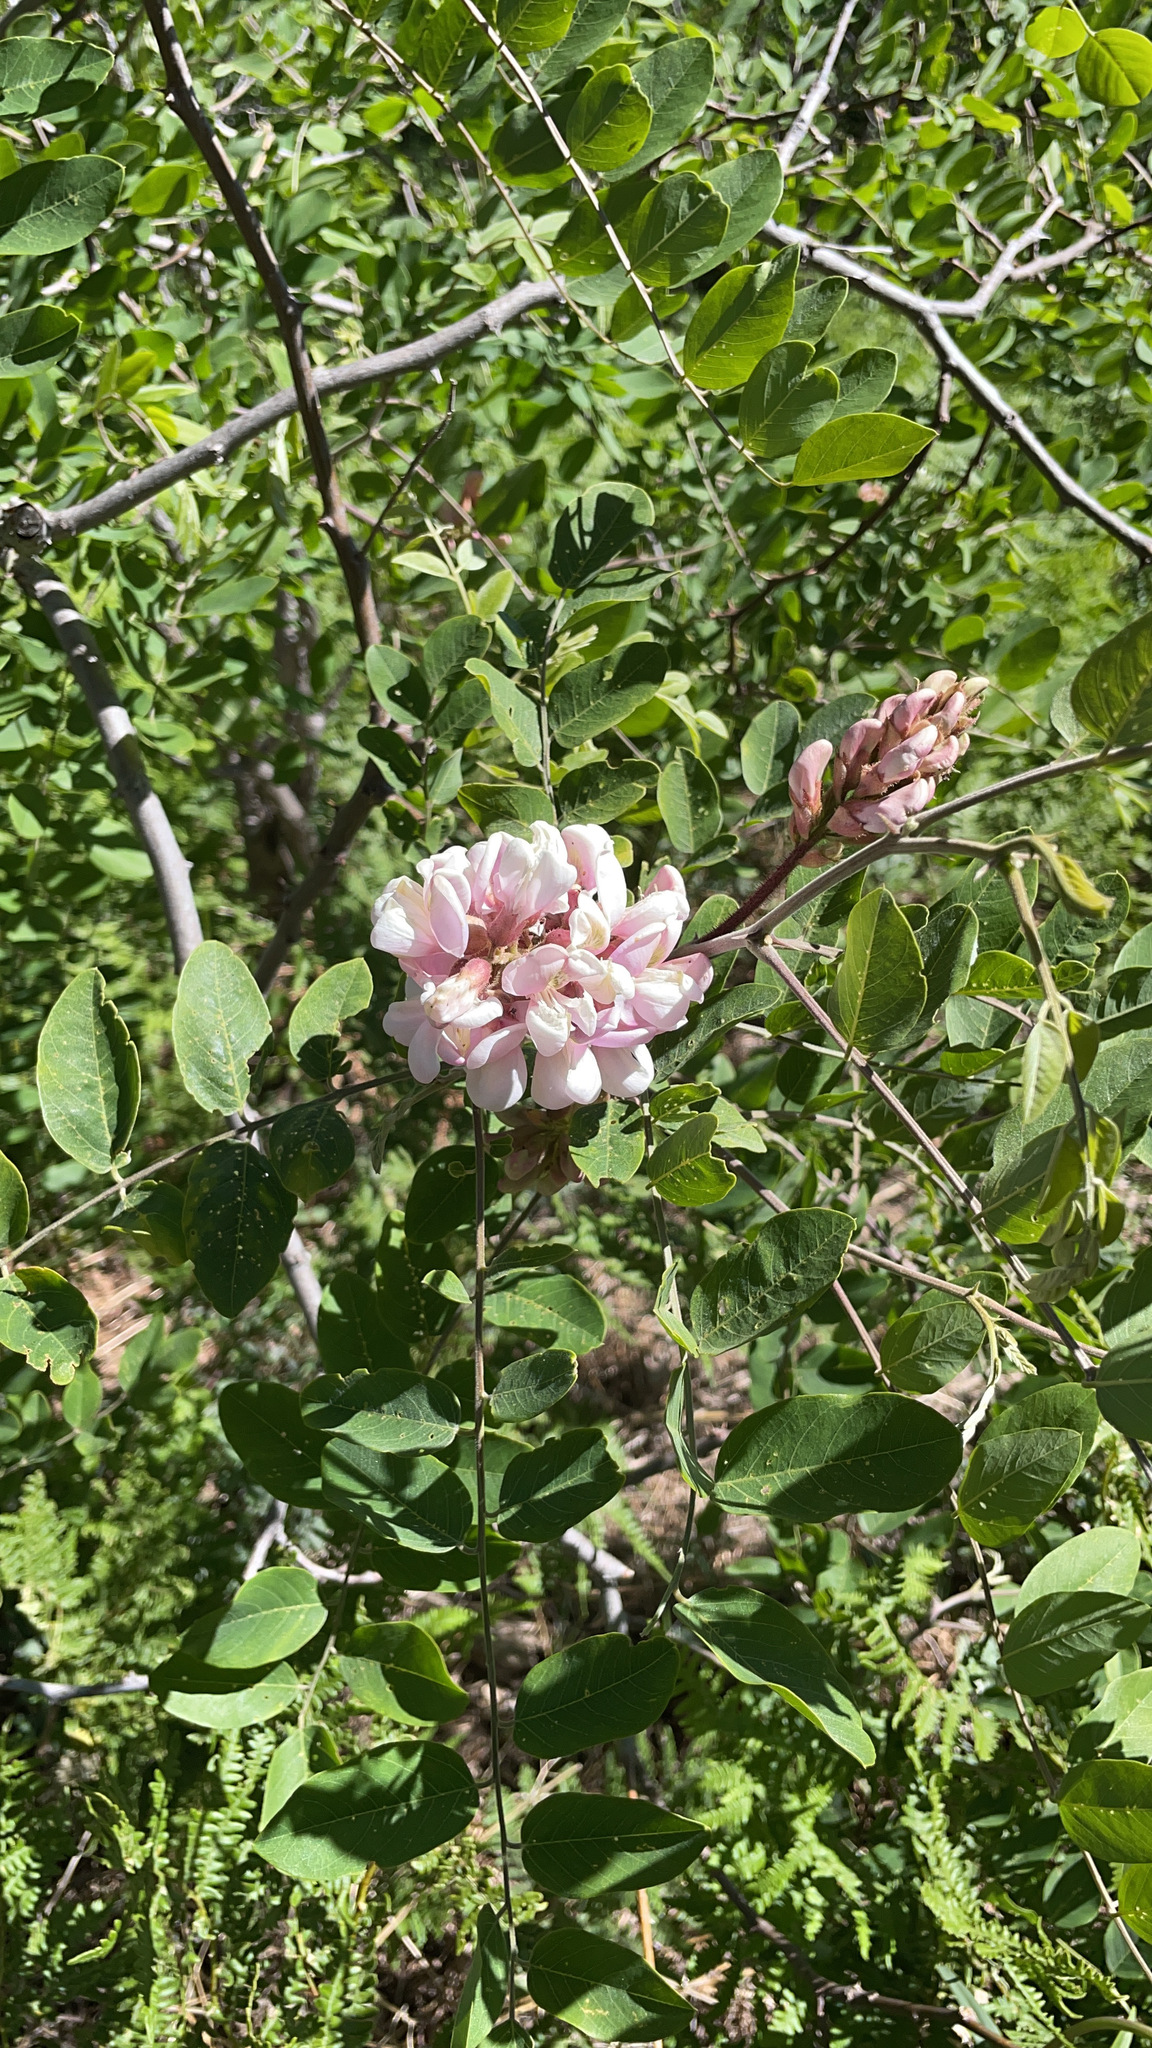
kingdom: Plantae
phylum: Tracheophyta
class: Magnoliopsida
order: Fabales
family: Fabaceae
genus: Robinia
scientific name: Robinia neomexicana
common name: New mexico locust
